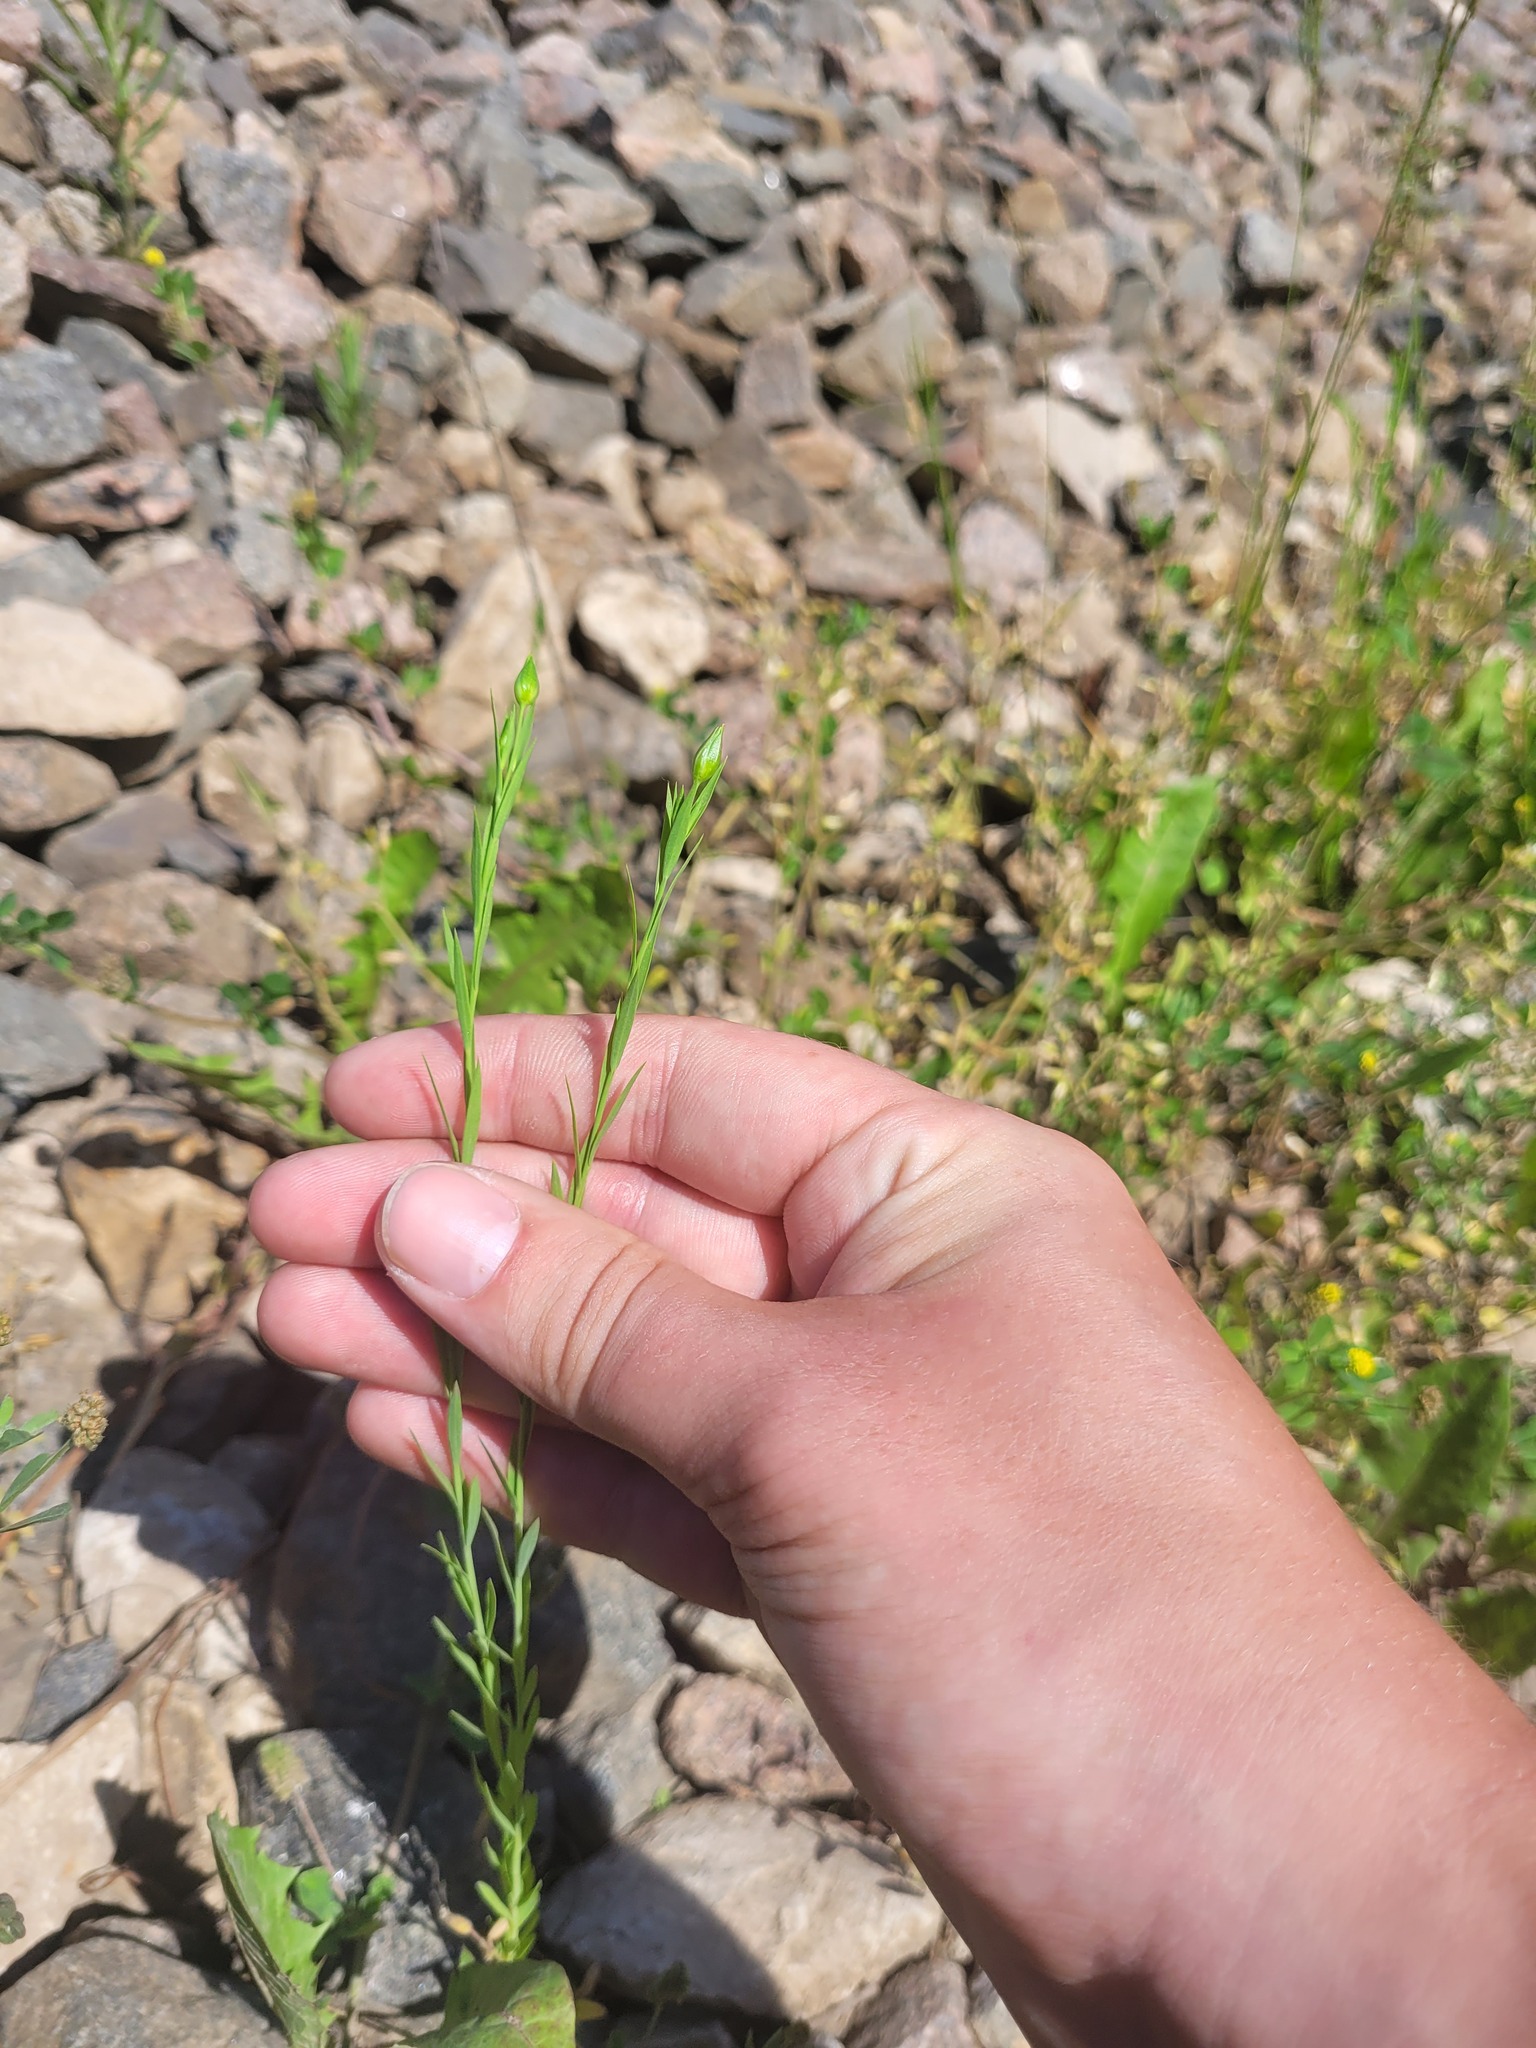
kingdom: Plantae
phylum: Tracheophyta
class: Magnoliopsida
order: Malpighiales
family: Linaceae
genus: Linum
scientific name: Linum usitatissimum
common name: Flax
